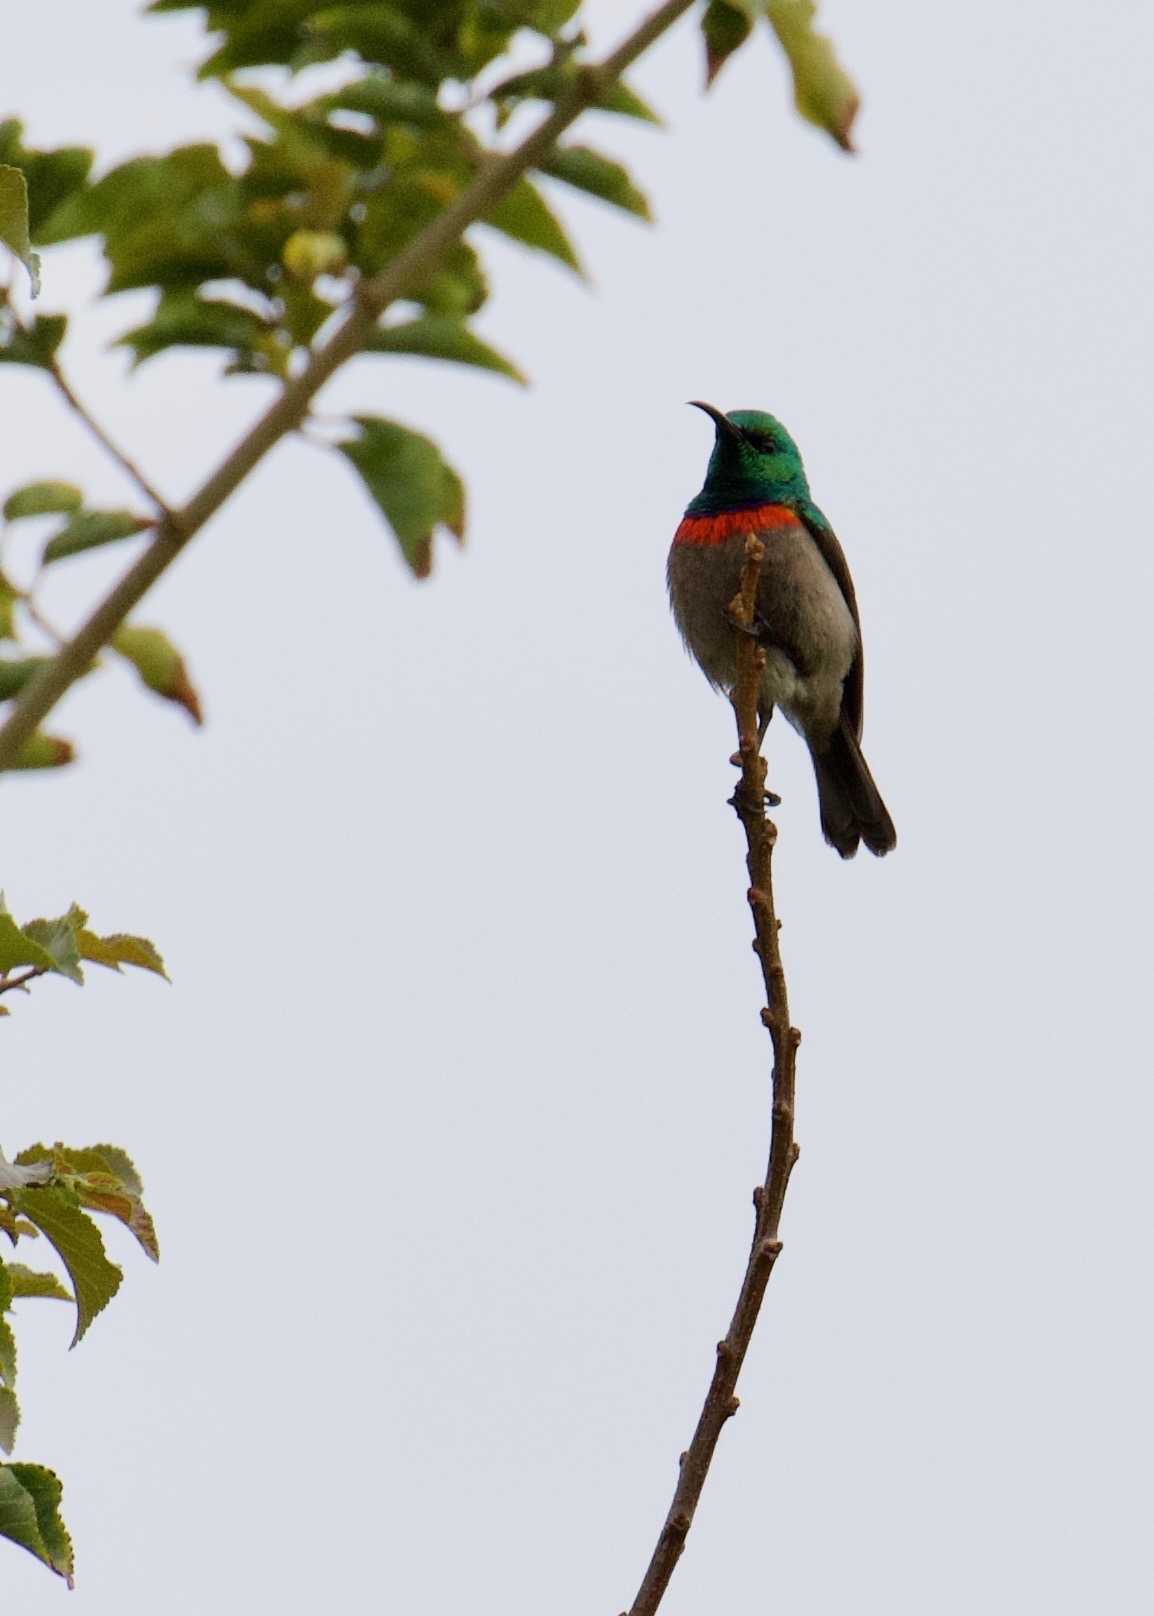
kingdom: Animalia
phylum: Chordata
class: Aves
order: Passeriformes
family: Nectariniidae
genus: Cinnyris
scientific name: Cinnyris chalybeus
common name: Southern double-collared sunbird
